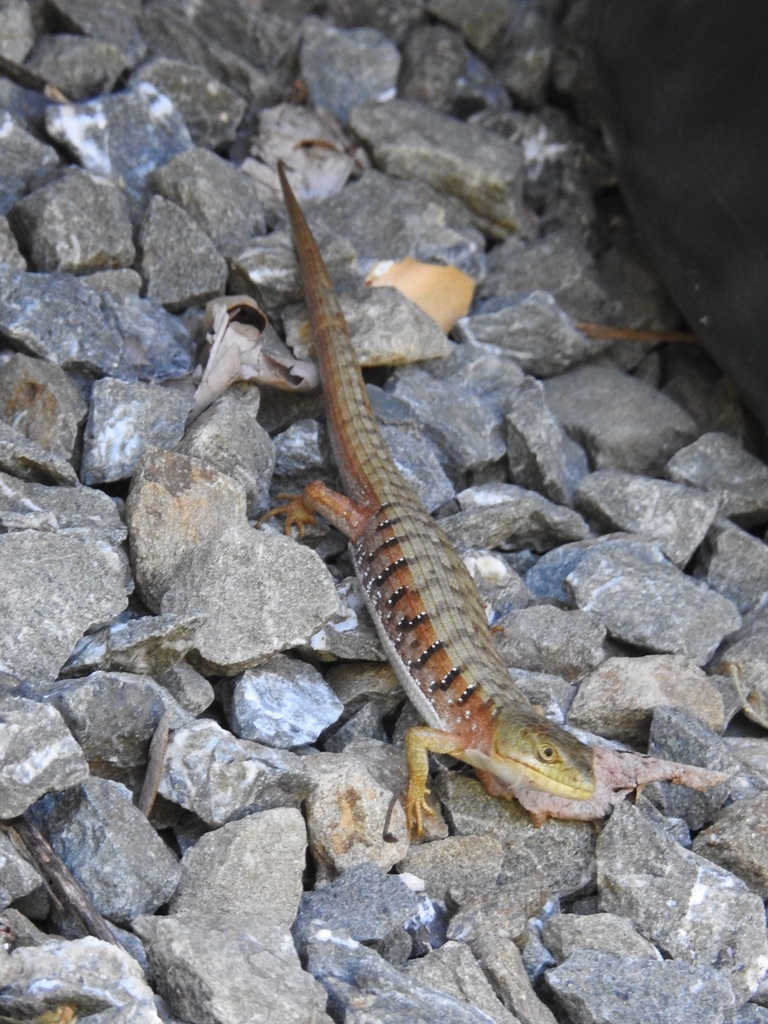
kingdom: Animalia
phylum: Chordata
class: Squamata
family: Anguidae
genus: Elgaria
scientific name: Elgaria multicarinata
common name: Southern alligator lizard
